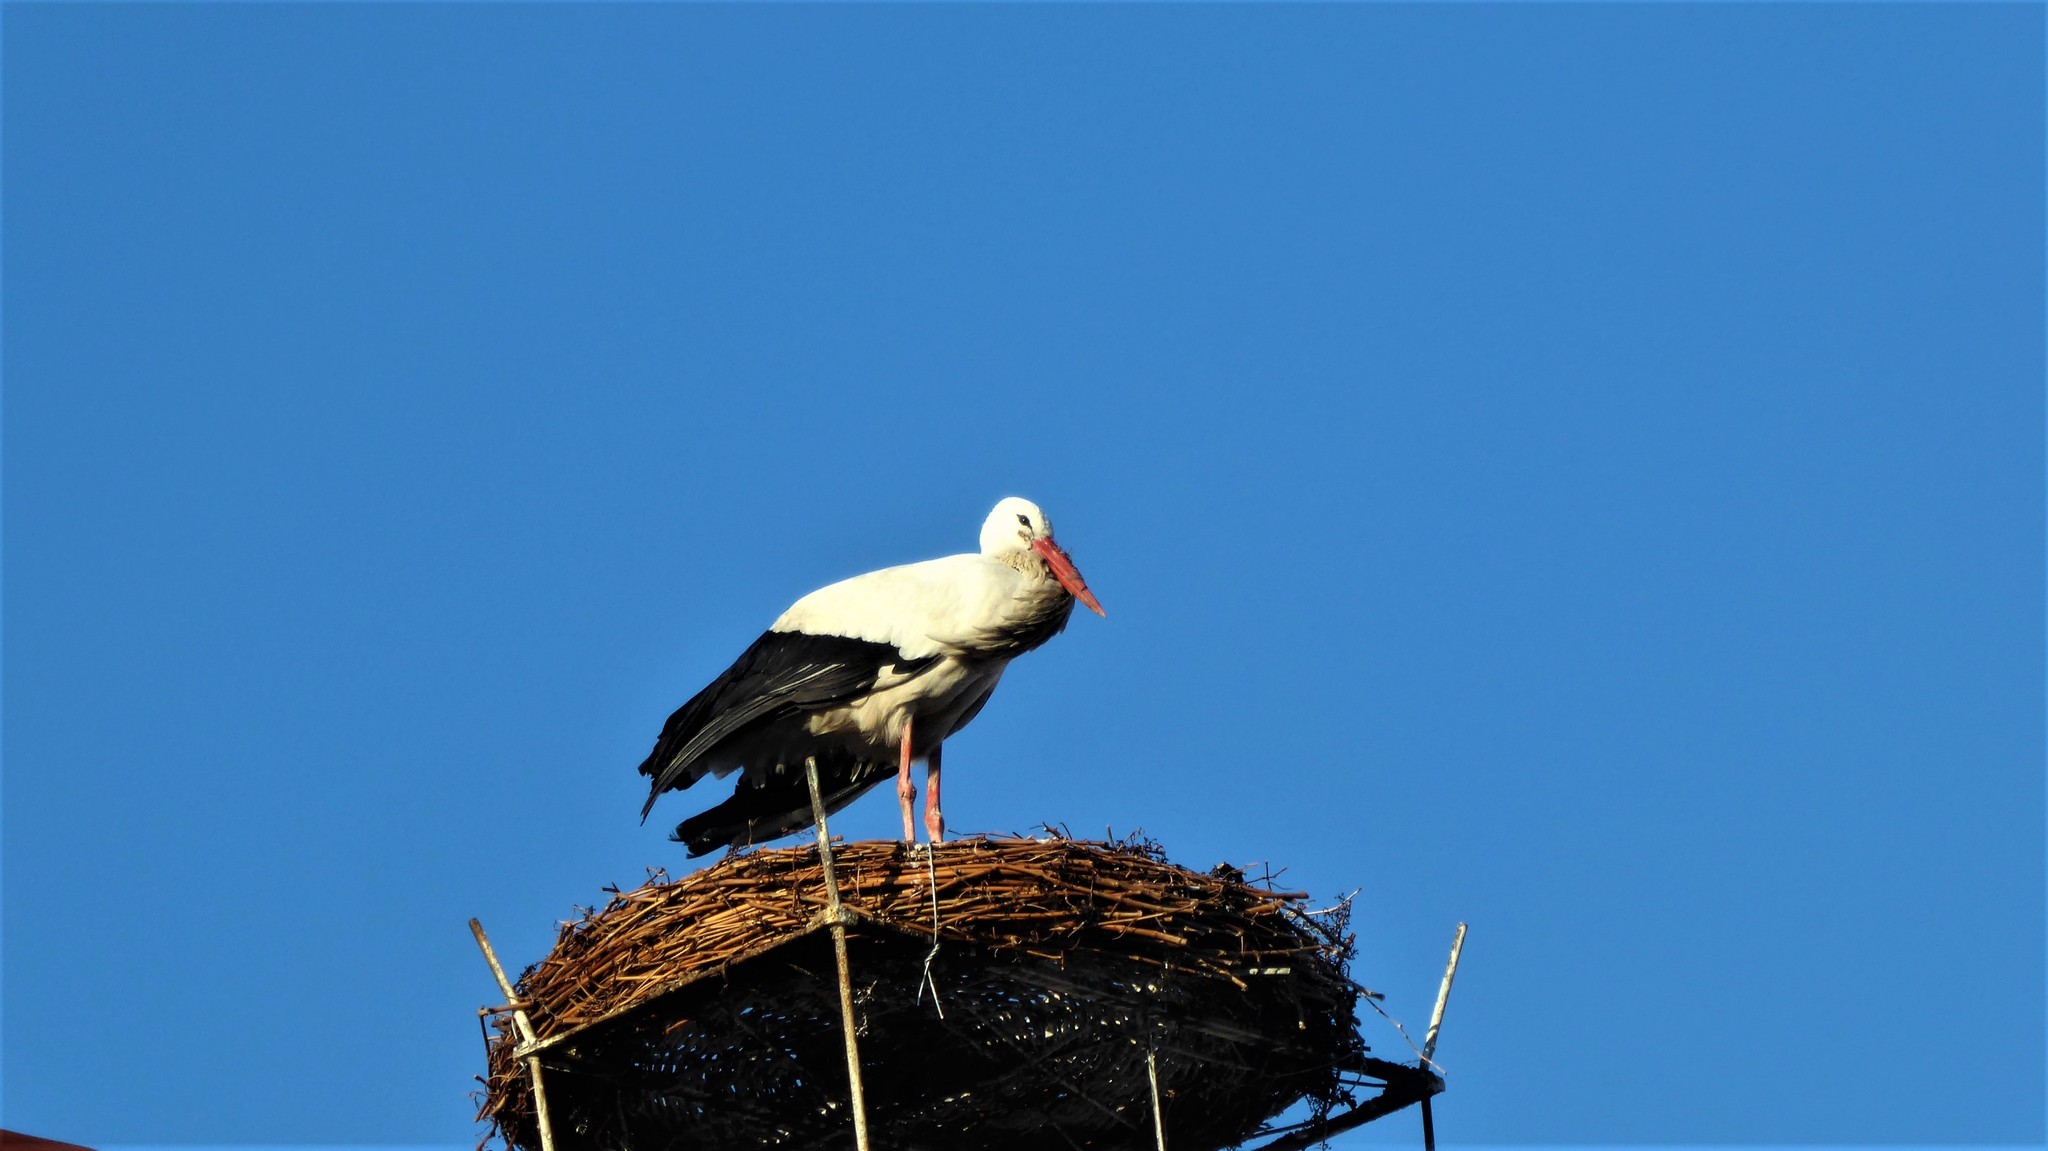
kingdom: Animalia
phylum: Chordata
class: Aves
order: Ciconiiformes
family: Ciconiidae
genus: Ciconia
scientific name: Ciconia ciconia
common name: White stork
